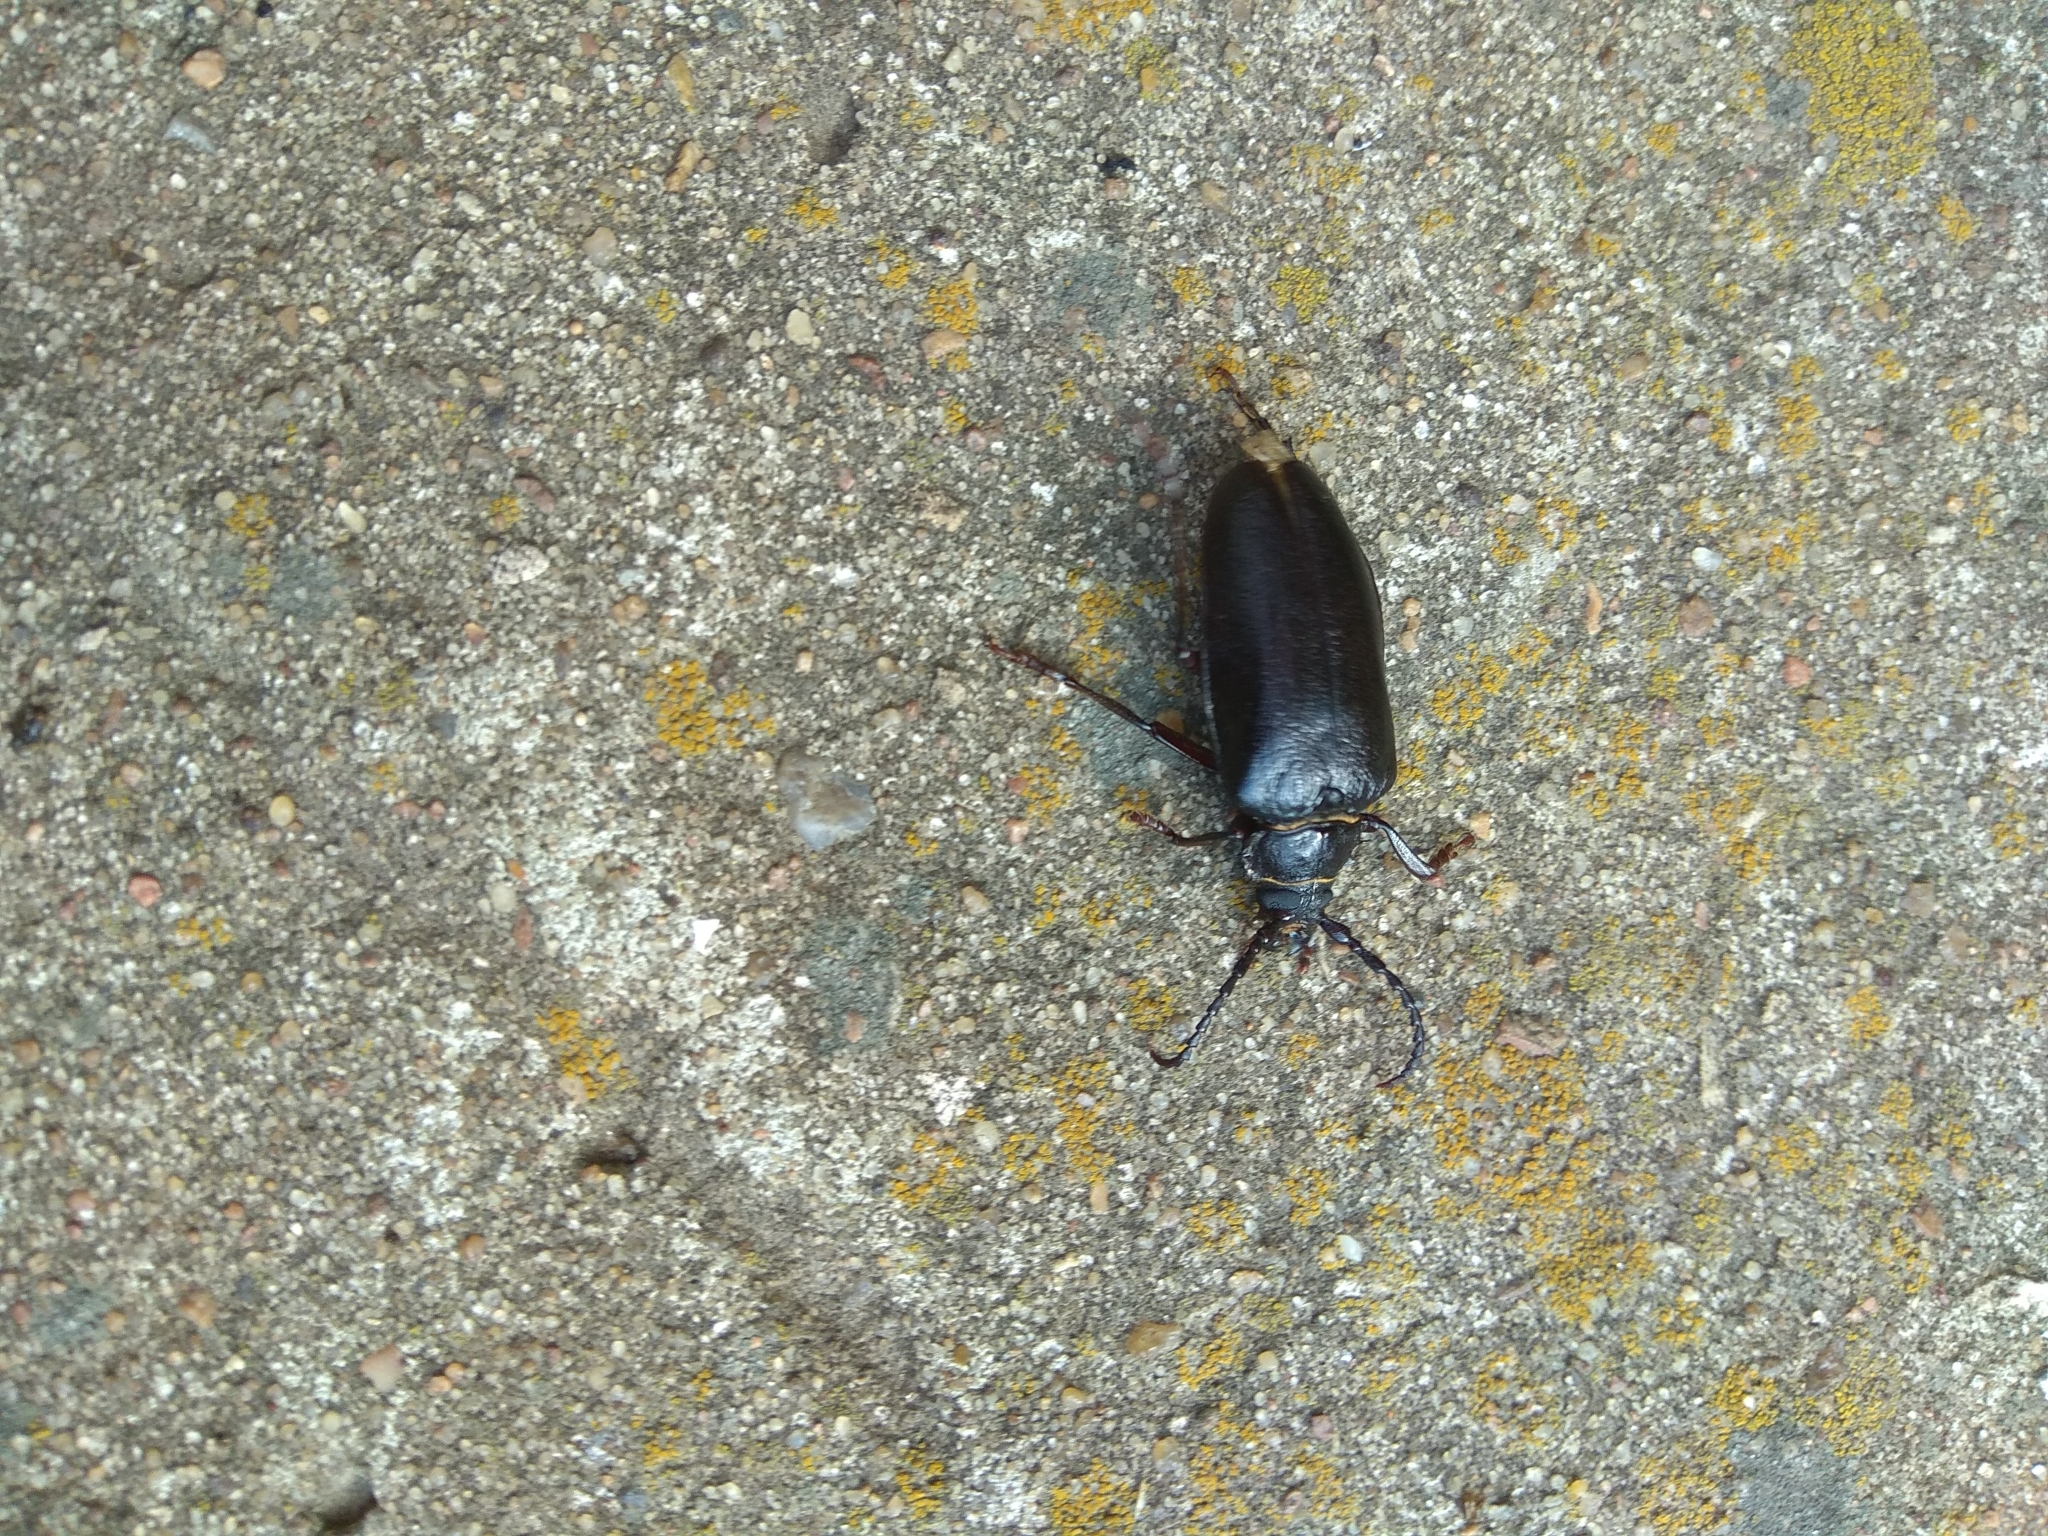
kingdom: Animalia
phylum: Arthropoda
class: Insecta
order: Coleoptera
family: Cerambycidae
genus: Prionus
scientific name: Prionus coriarius
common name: Tanner beetle
